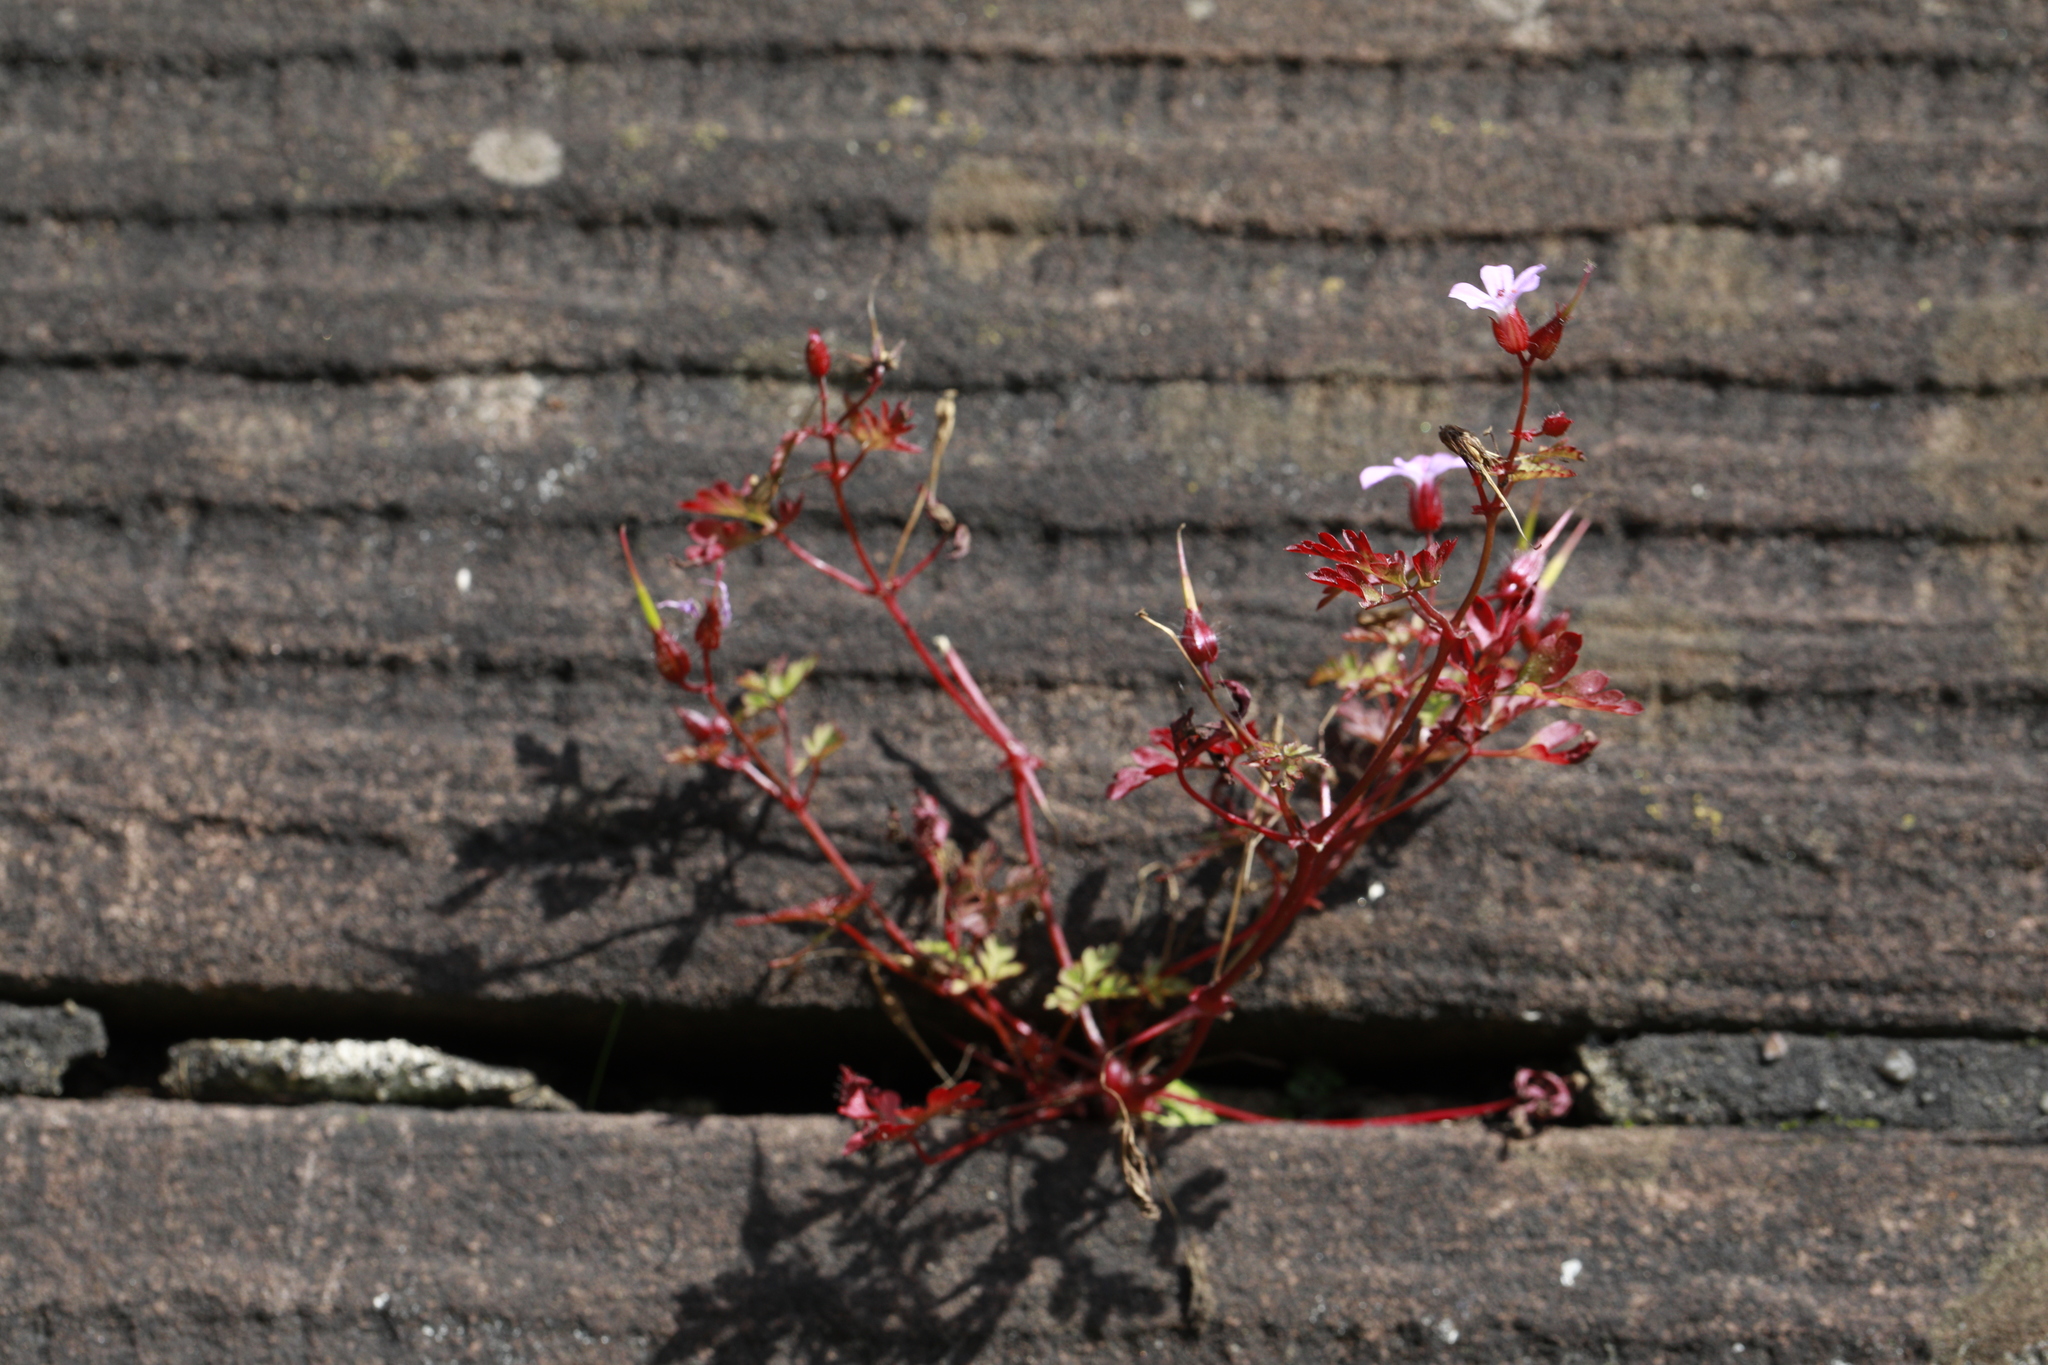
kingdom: Plantae
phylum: Tracheophyta
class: Magnoliopsida
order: Geraniales
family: Geraniaceae
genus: Geranium
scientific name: Geranium robertianum
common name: Herb-robert
